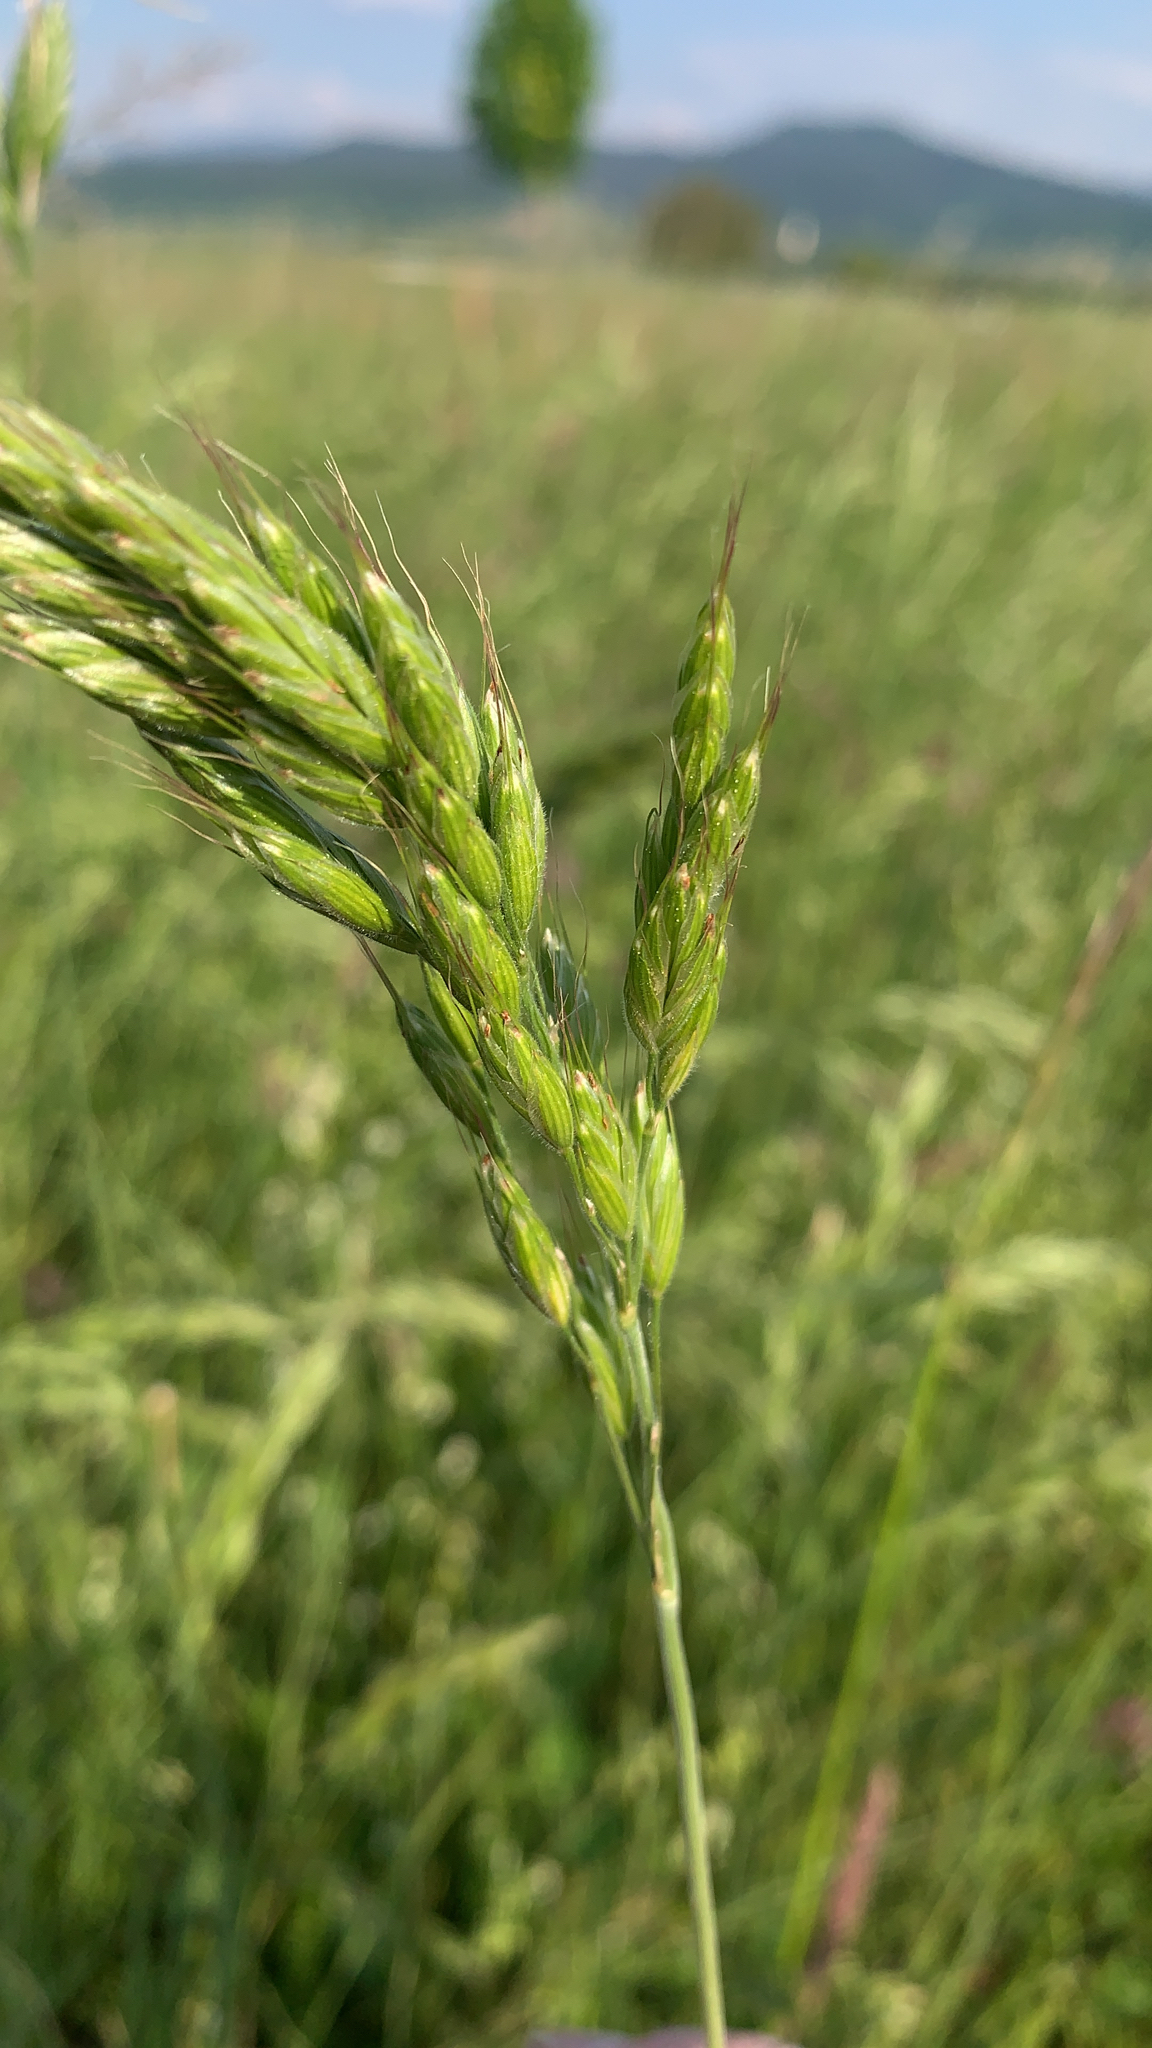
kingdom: Plantae
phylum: Tracheophyta
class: Liliopsida
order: Poales
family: Poaceae
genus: Bromus
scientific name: Bromus hordeaceus
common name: Soft brome
